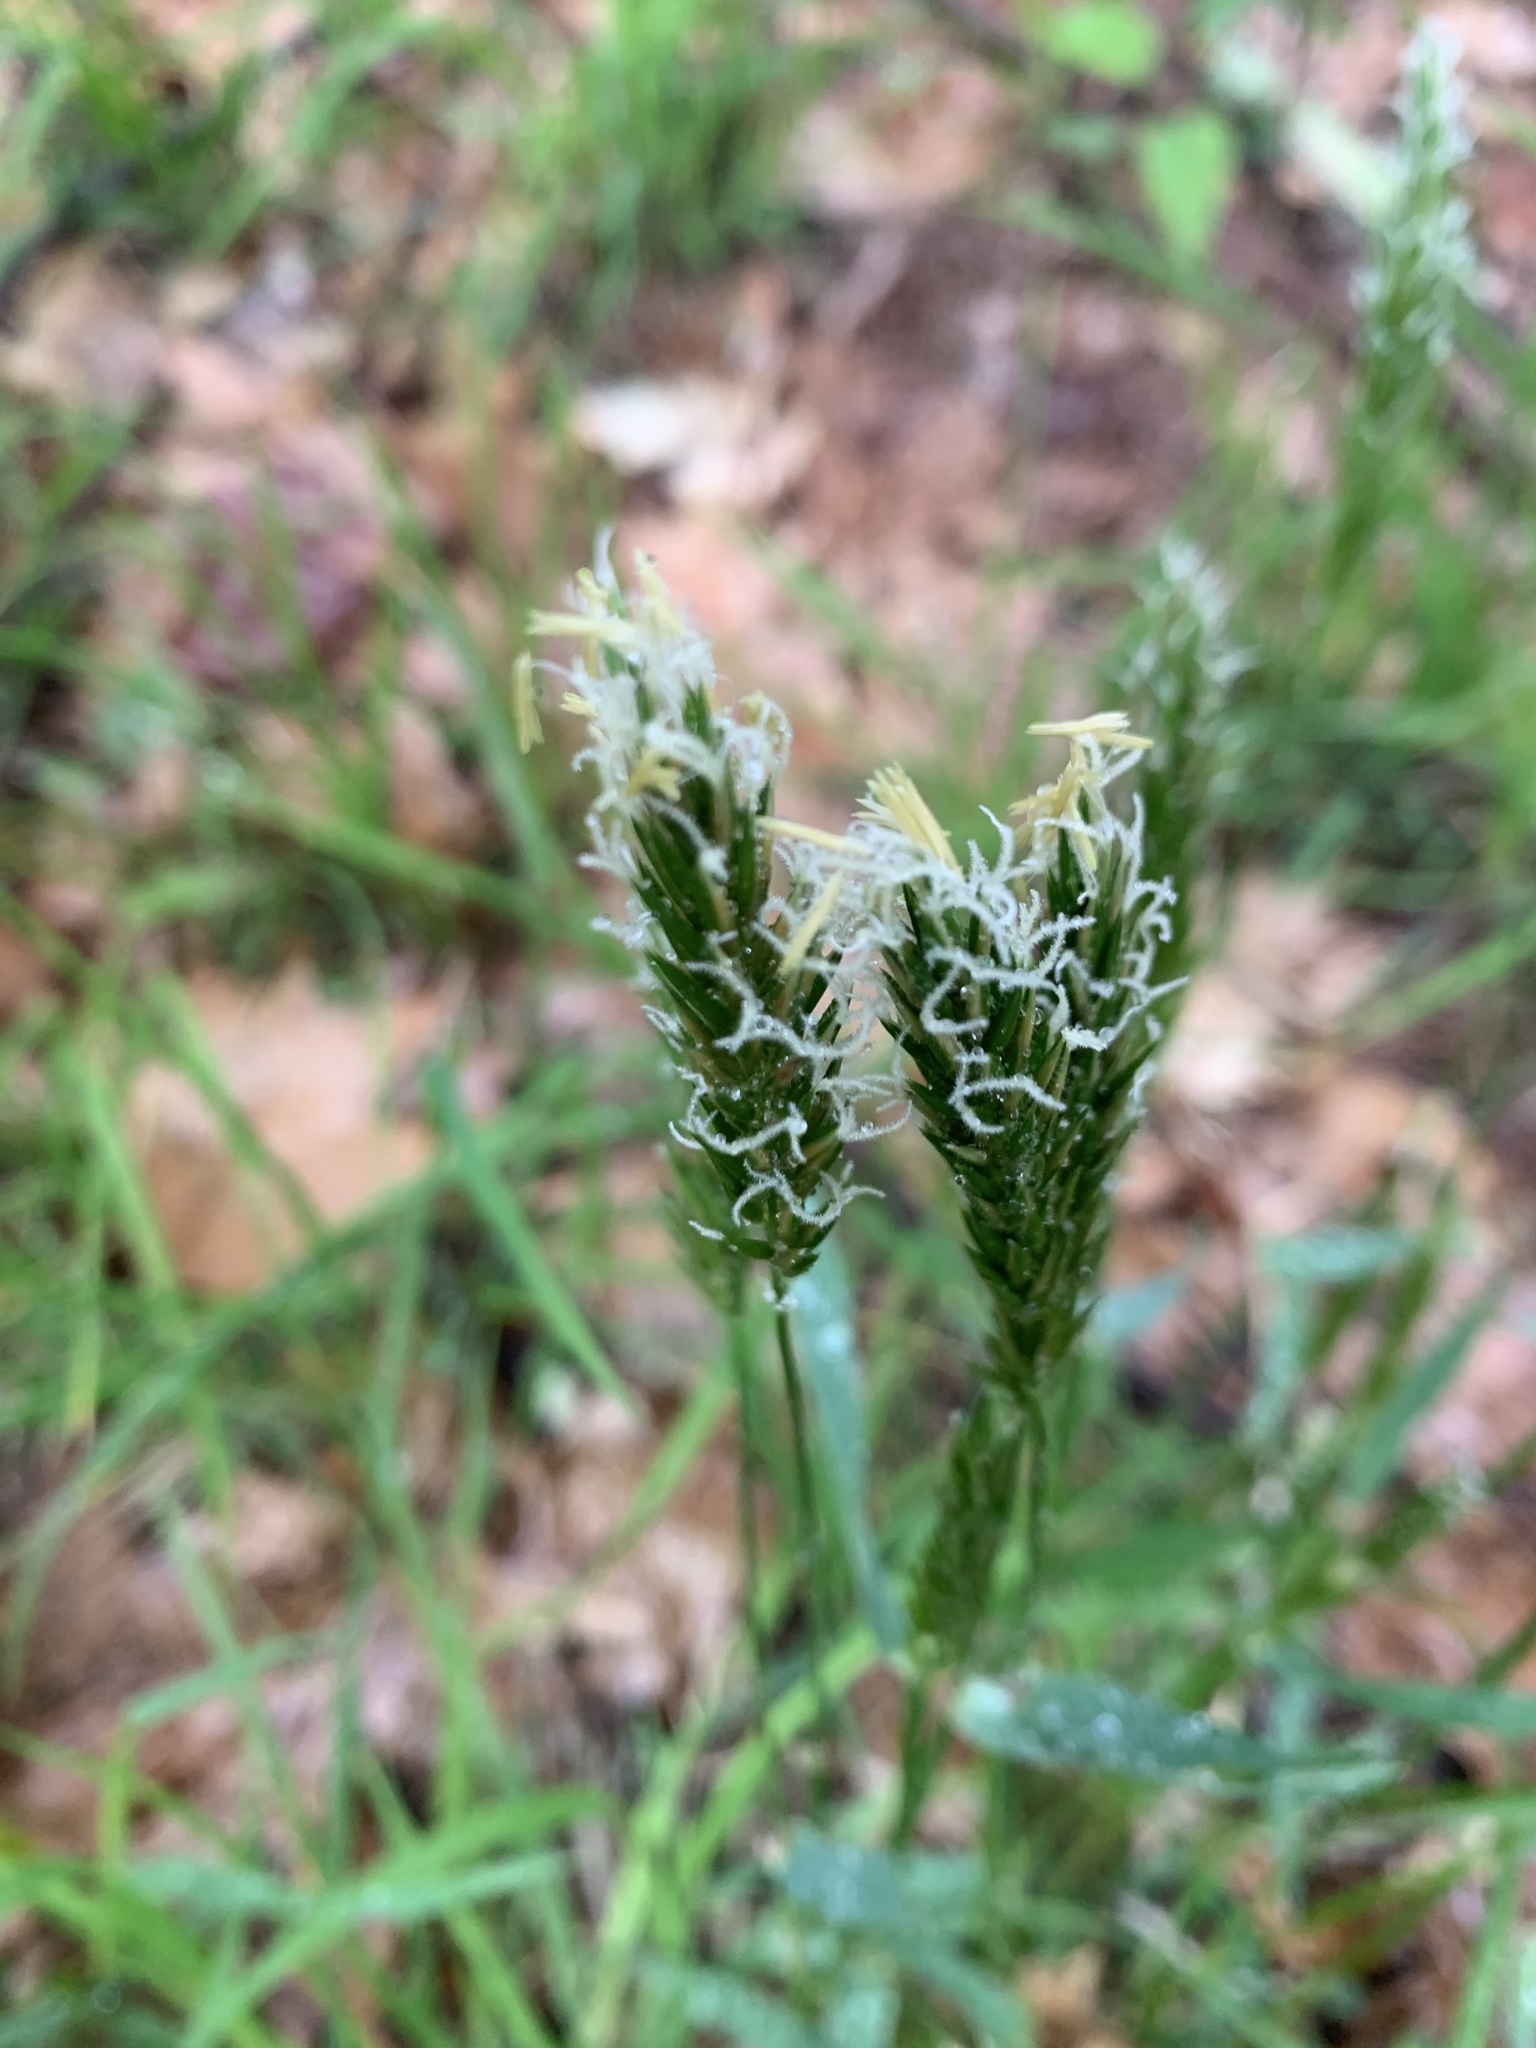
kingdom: Plantae
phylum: Tracheophyta
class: Liliopsida
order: Poales
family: Poaceae
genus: Anthoxanthum
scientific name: Anthoxanthum odoratum
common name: Sweet vernalgrass
